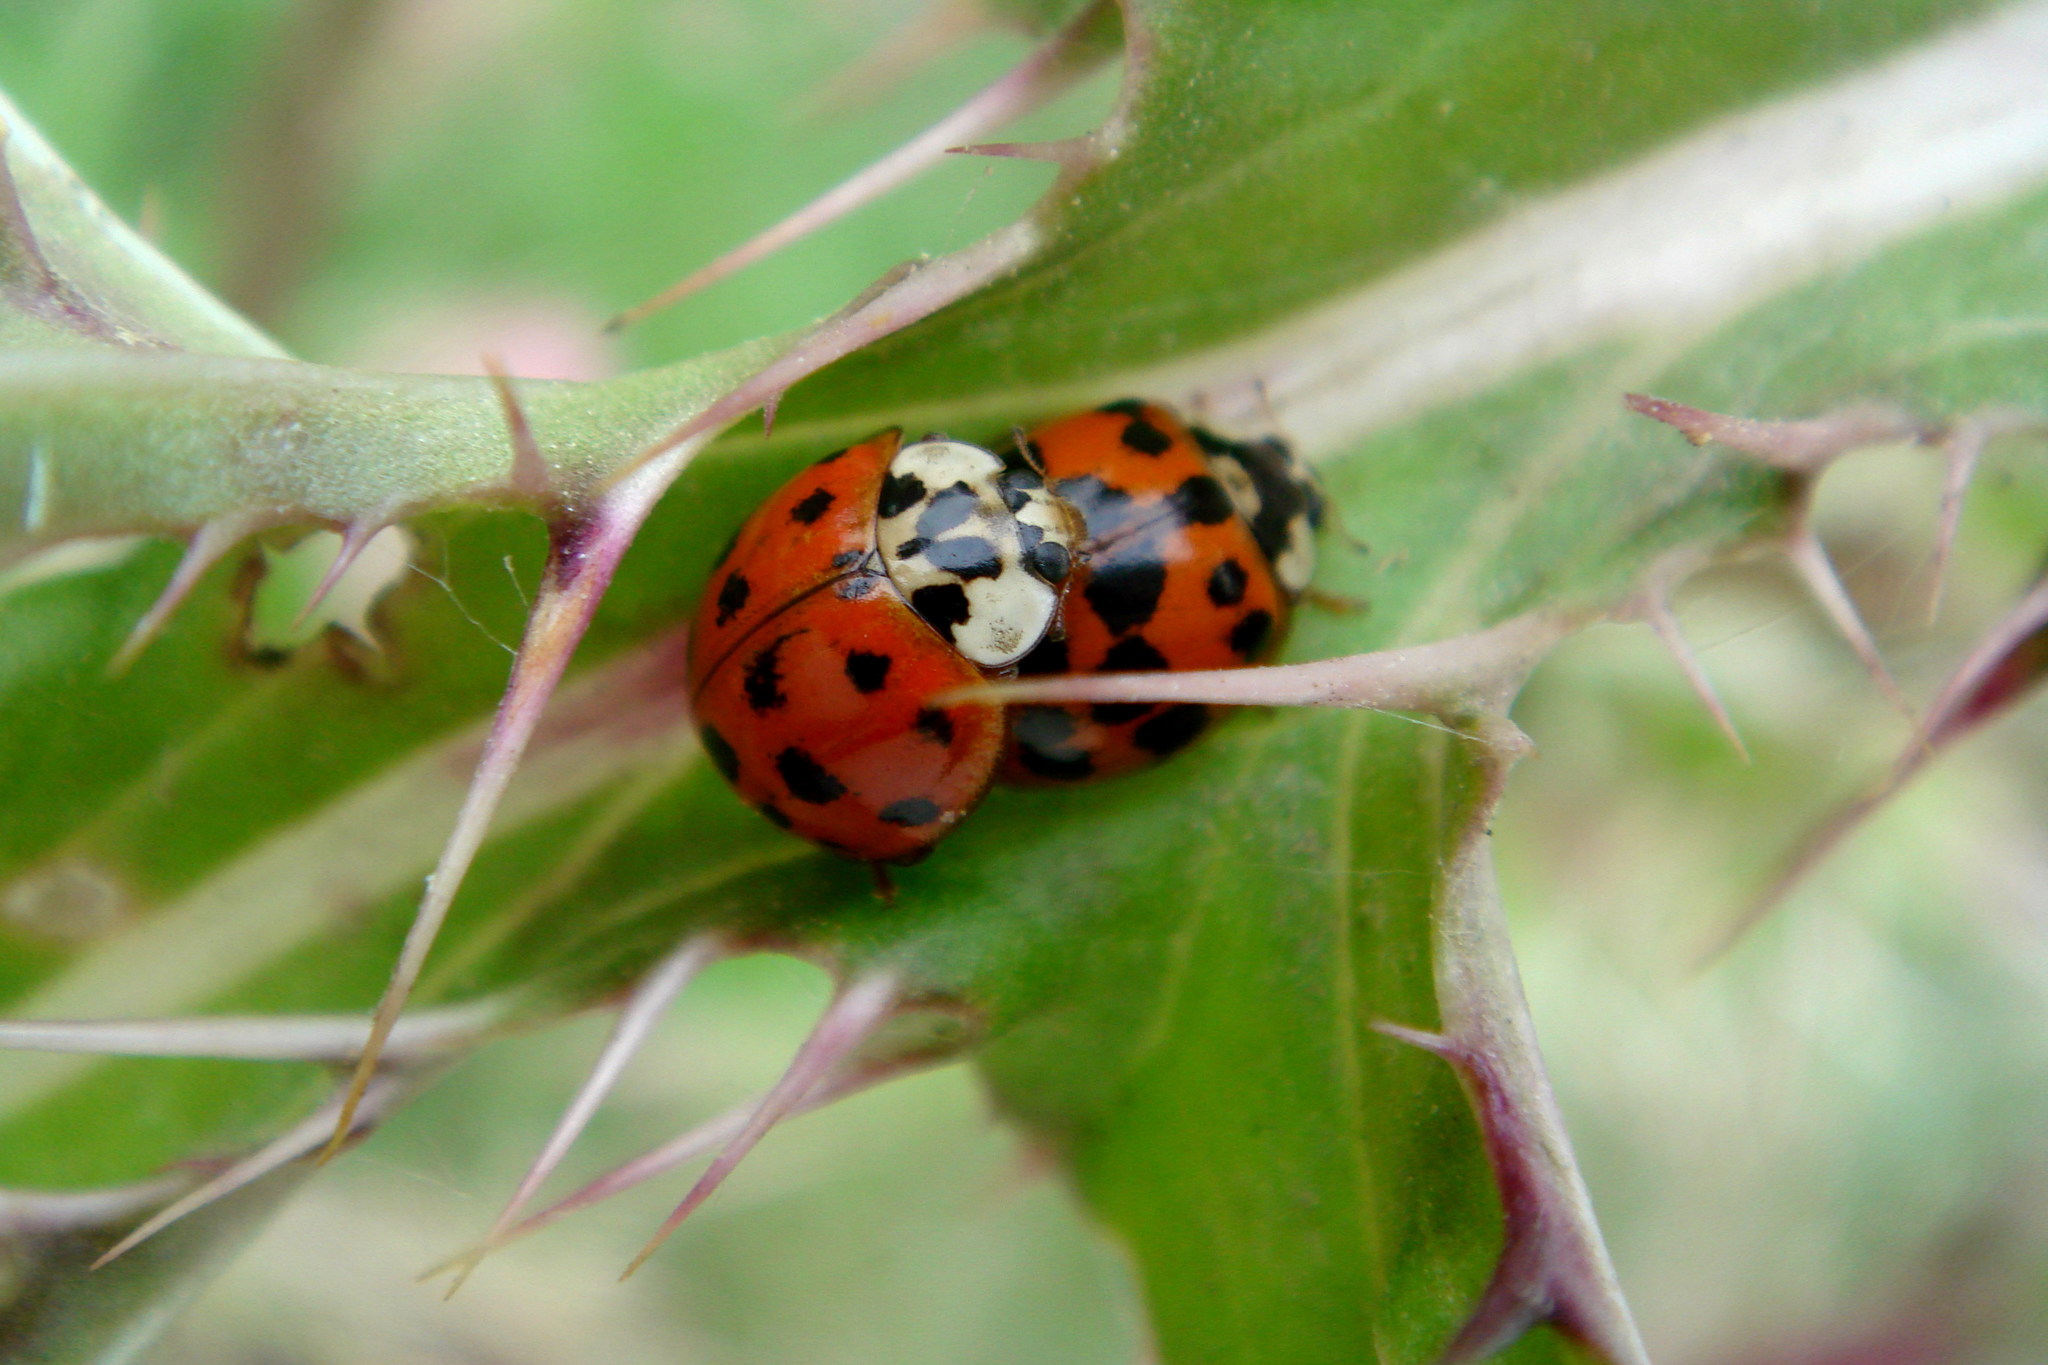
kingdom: Animalia
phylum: Arthropoda
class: Insecta
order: Coleoptera
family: Coccinellidae
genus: Harmonia
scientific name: Harmonia axyridis
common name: Harlequin ladybird
